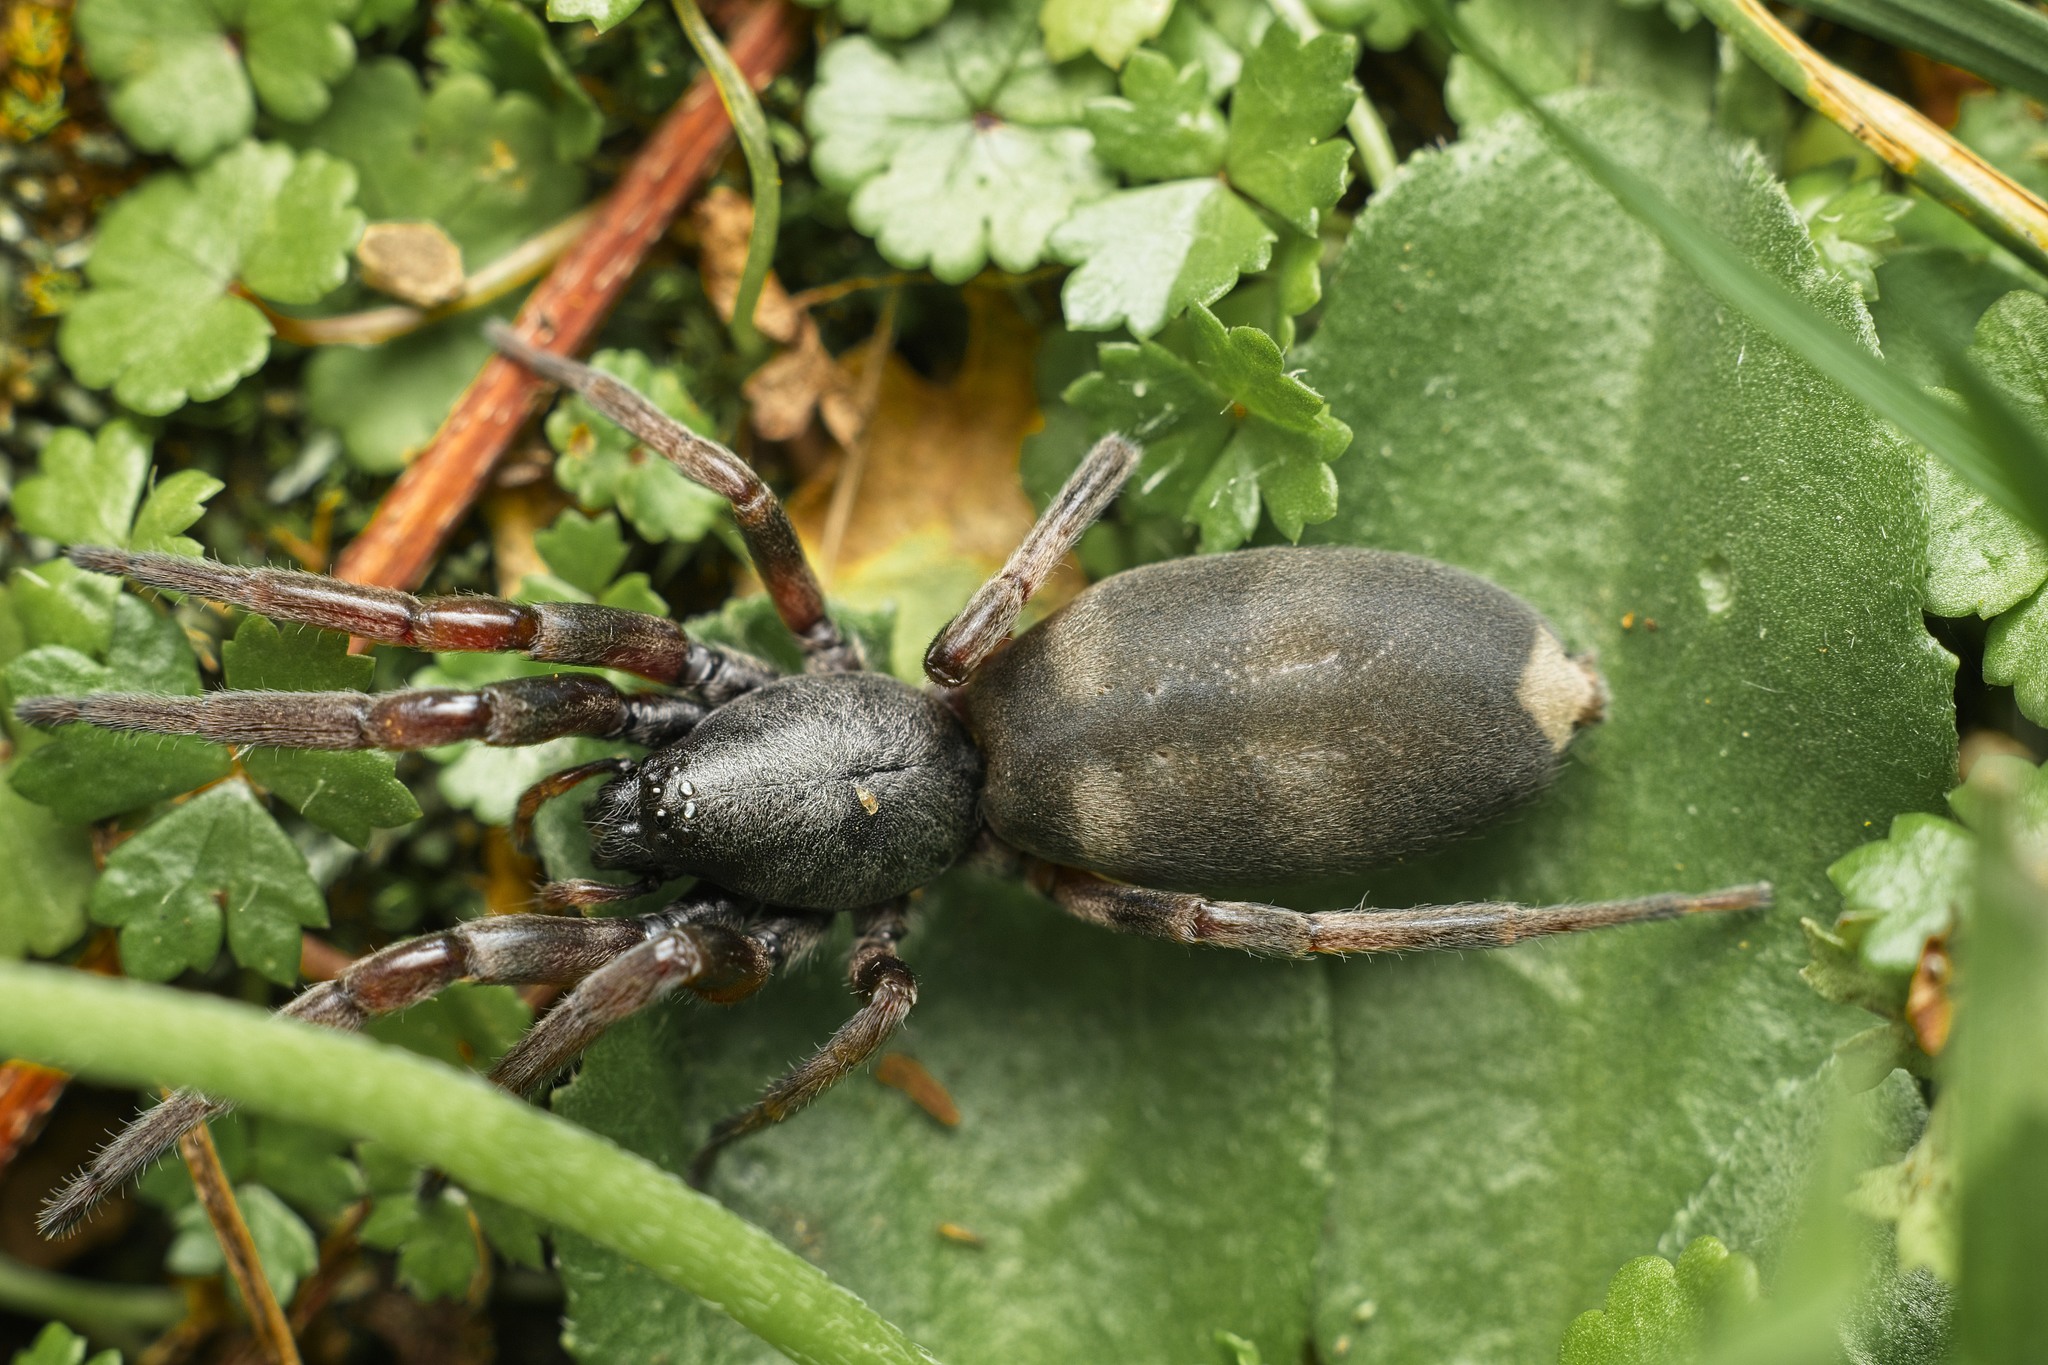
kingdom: Animalia
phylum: Arthropoda
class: Arachnida
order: Araneae
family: Lamponidae
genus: Lampona
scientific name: Lampona murina
